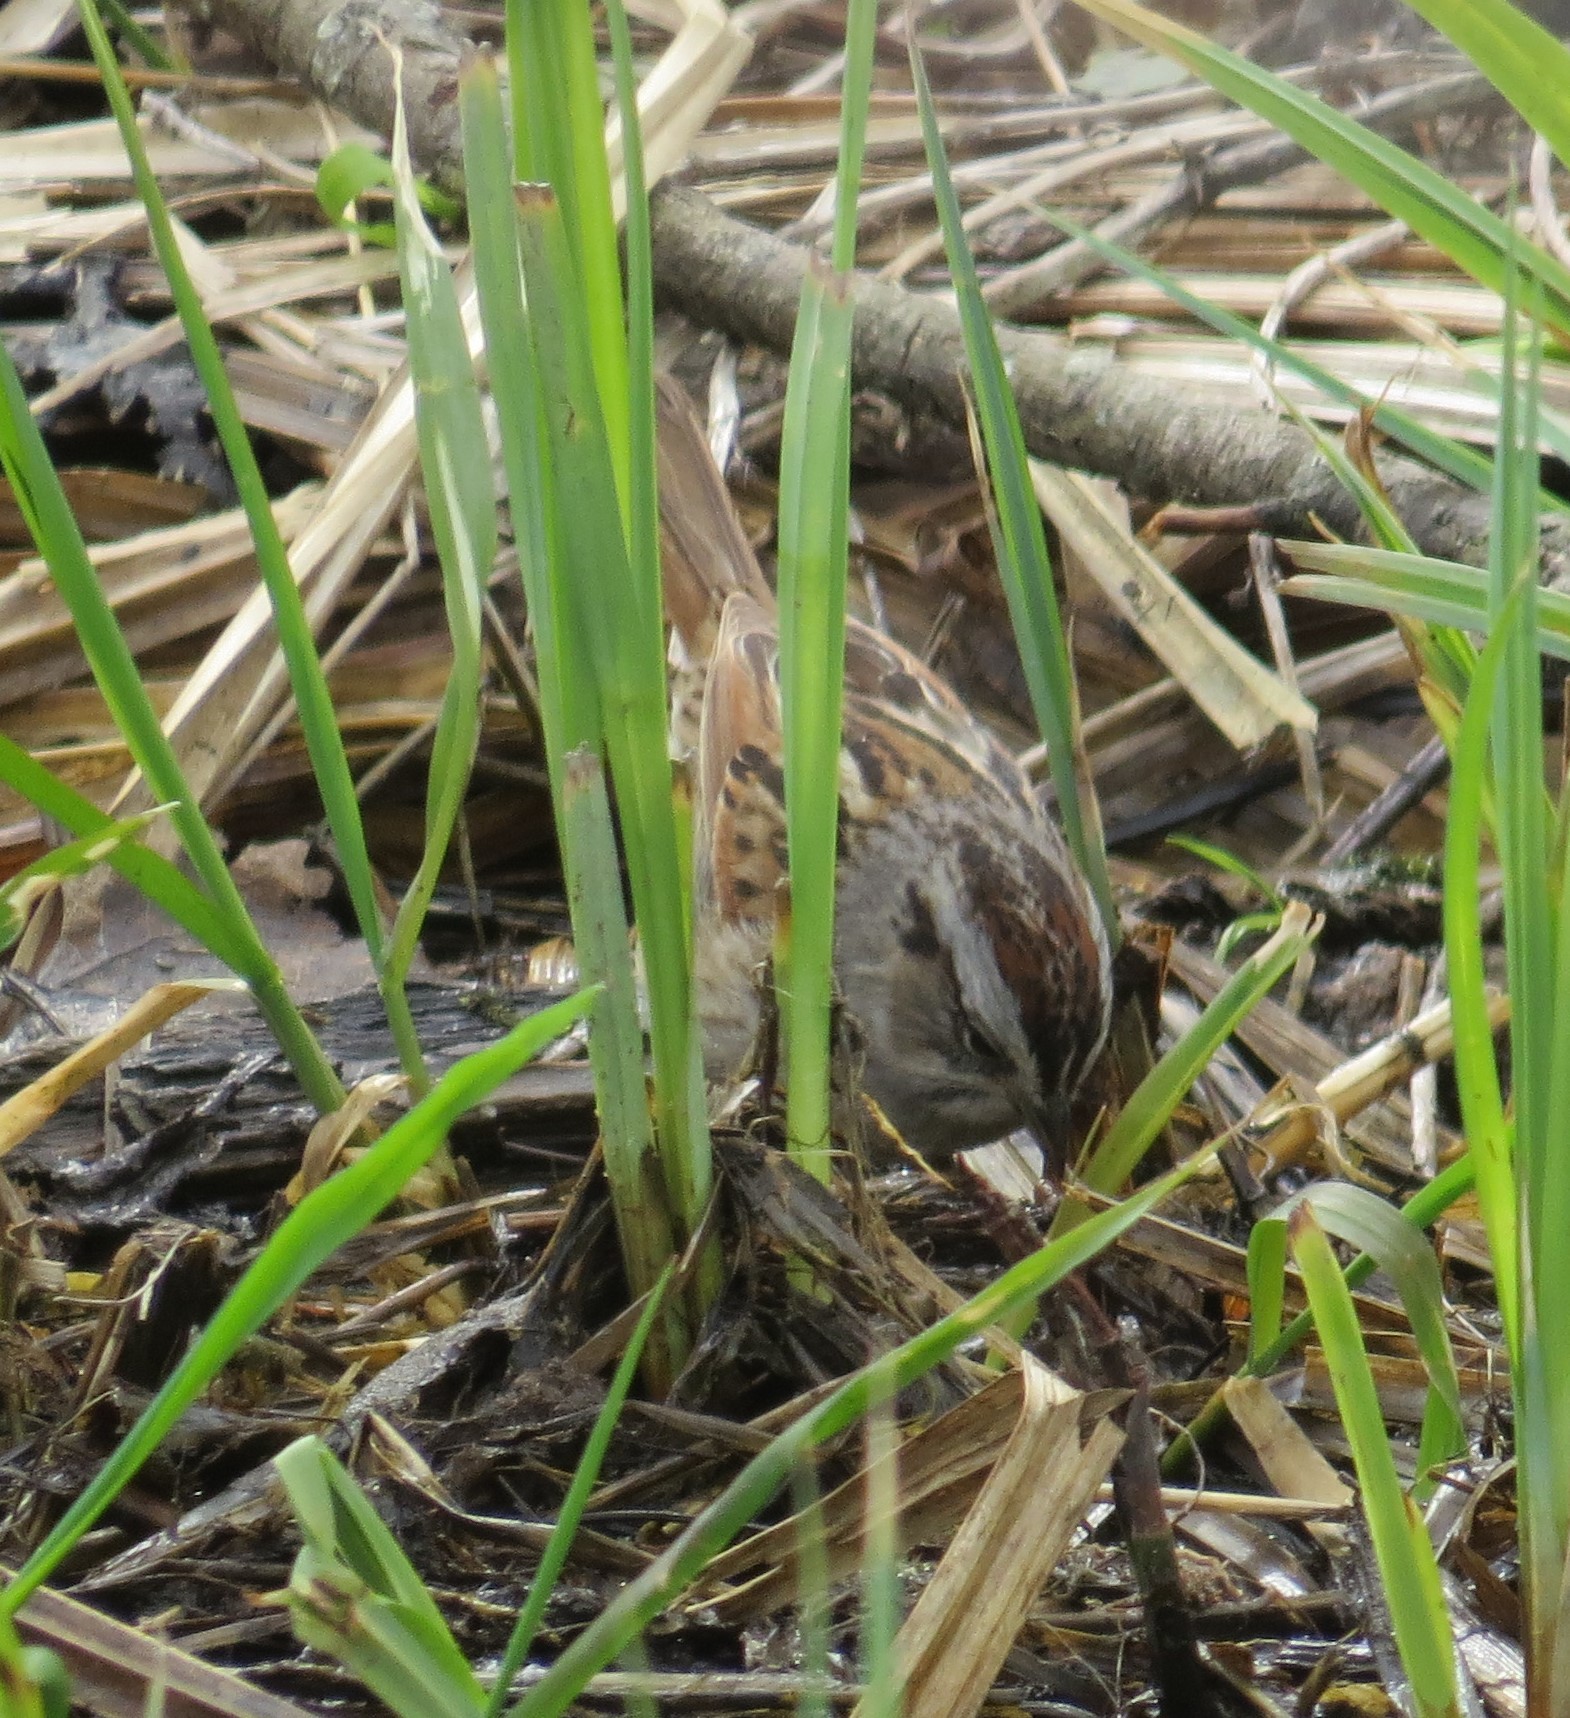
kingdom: Animalia
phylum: Chordata
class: Aves
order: Passeriformes
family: Passerellidae
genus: Melospiza
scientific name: Melospiza georgiana
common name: Swamp sparrow
